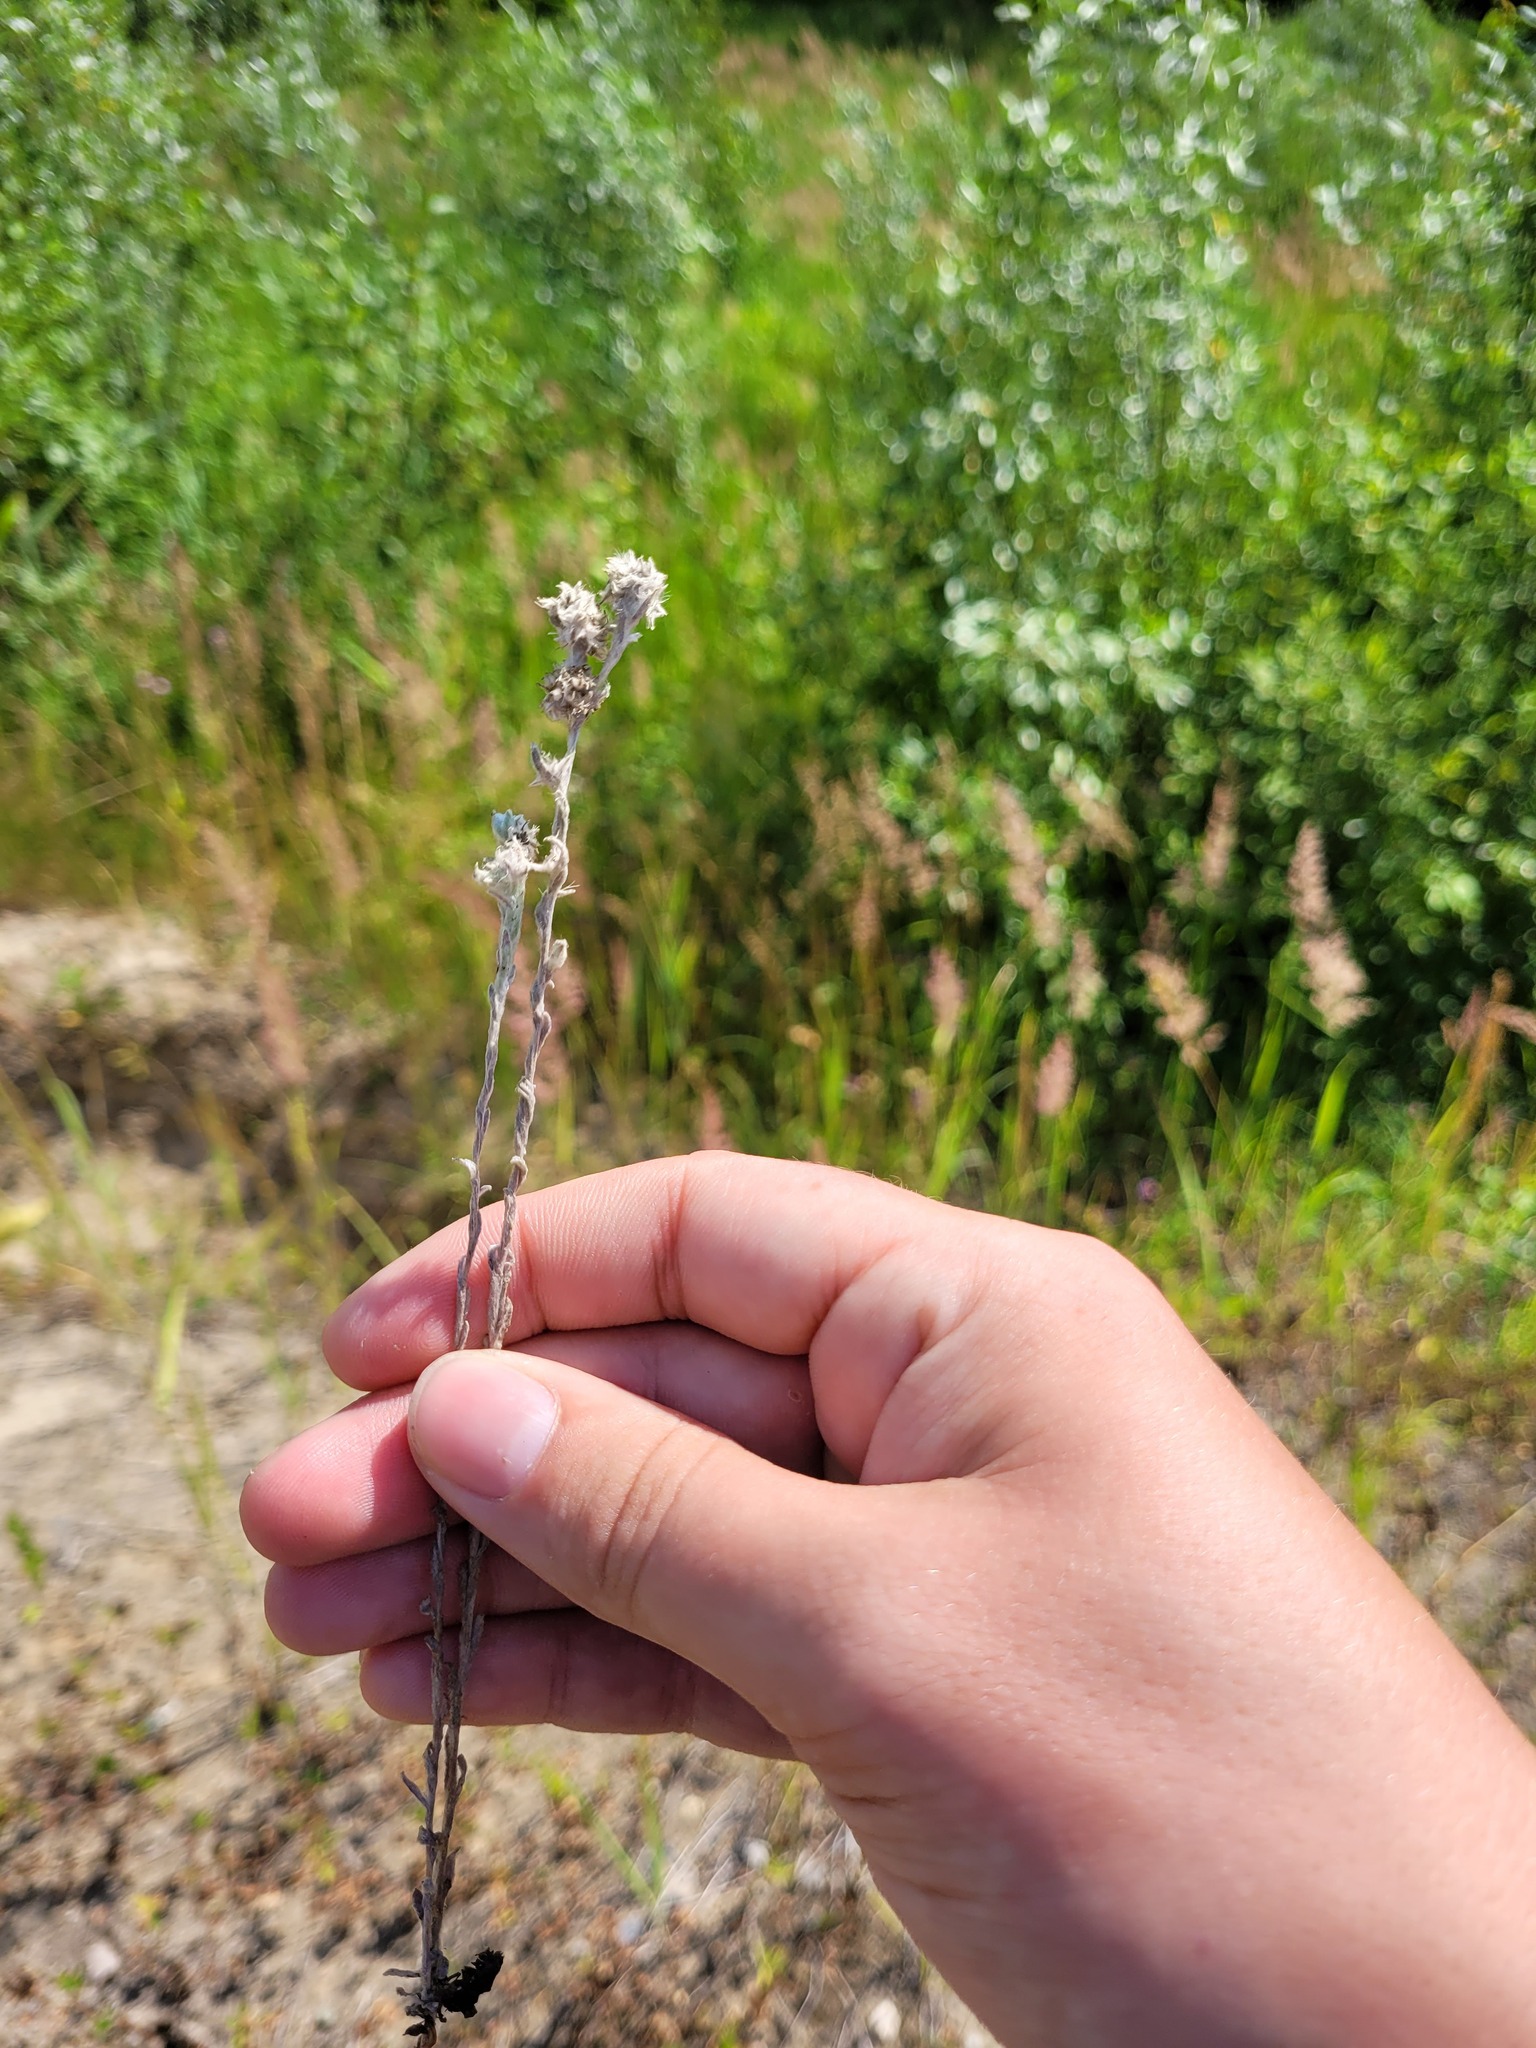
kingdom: Plantae
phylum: Tracheophyta
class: Magnoliopsida
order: Asterales
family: Asteraceae
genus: Filago
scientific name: Filago arvensis
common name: Field cudweed
